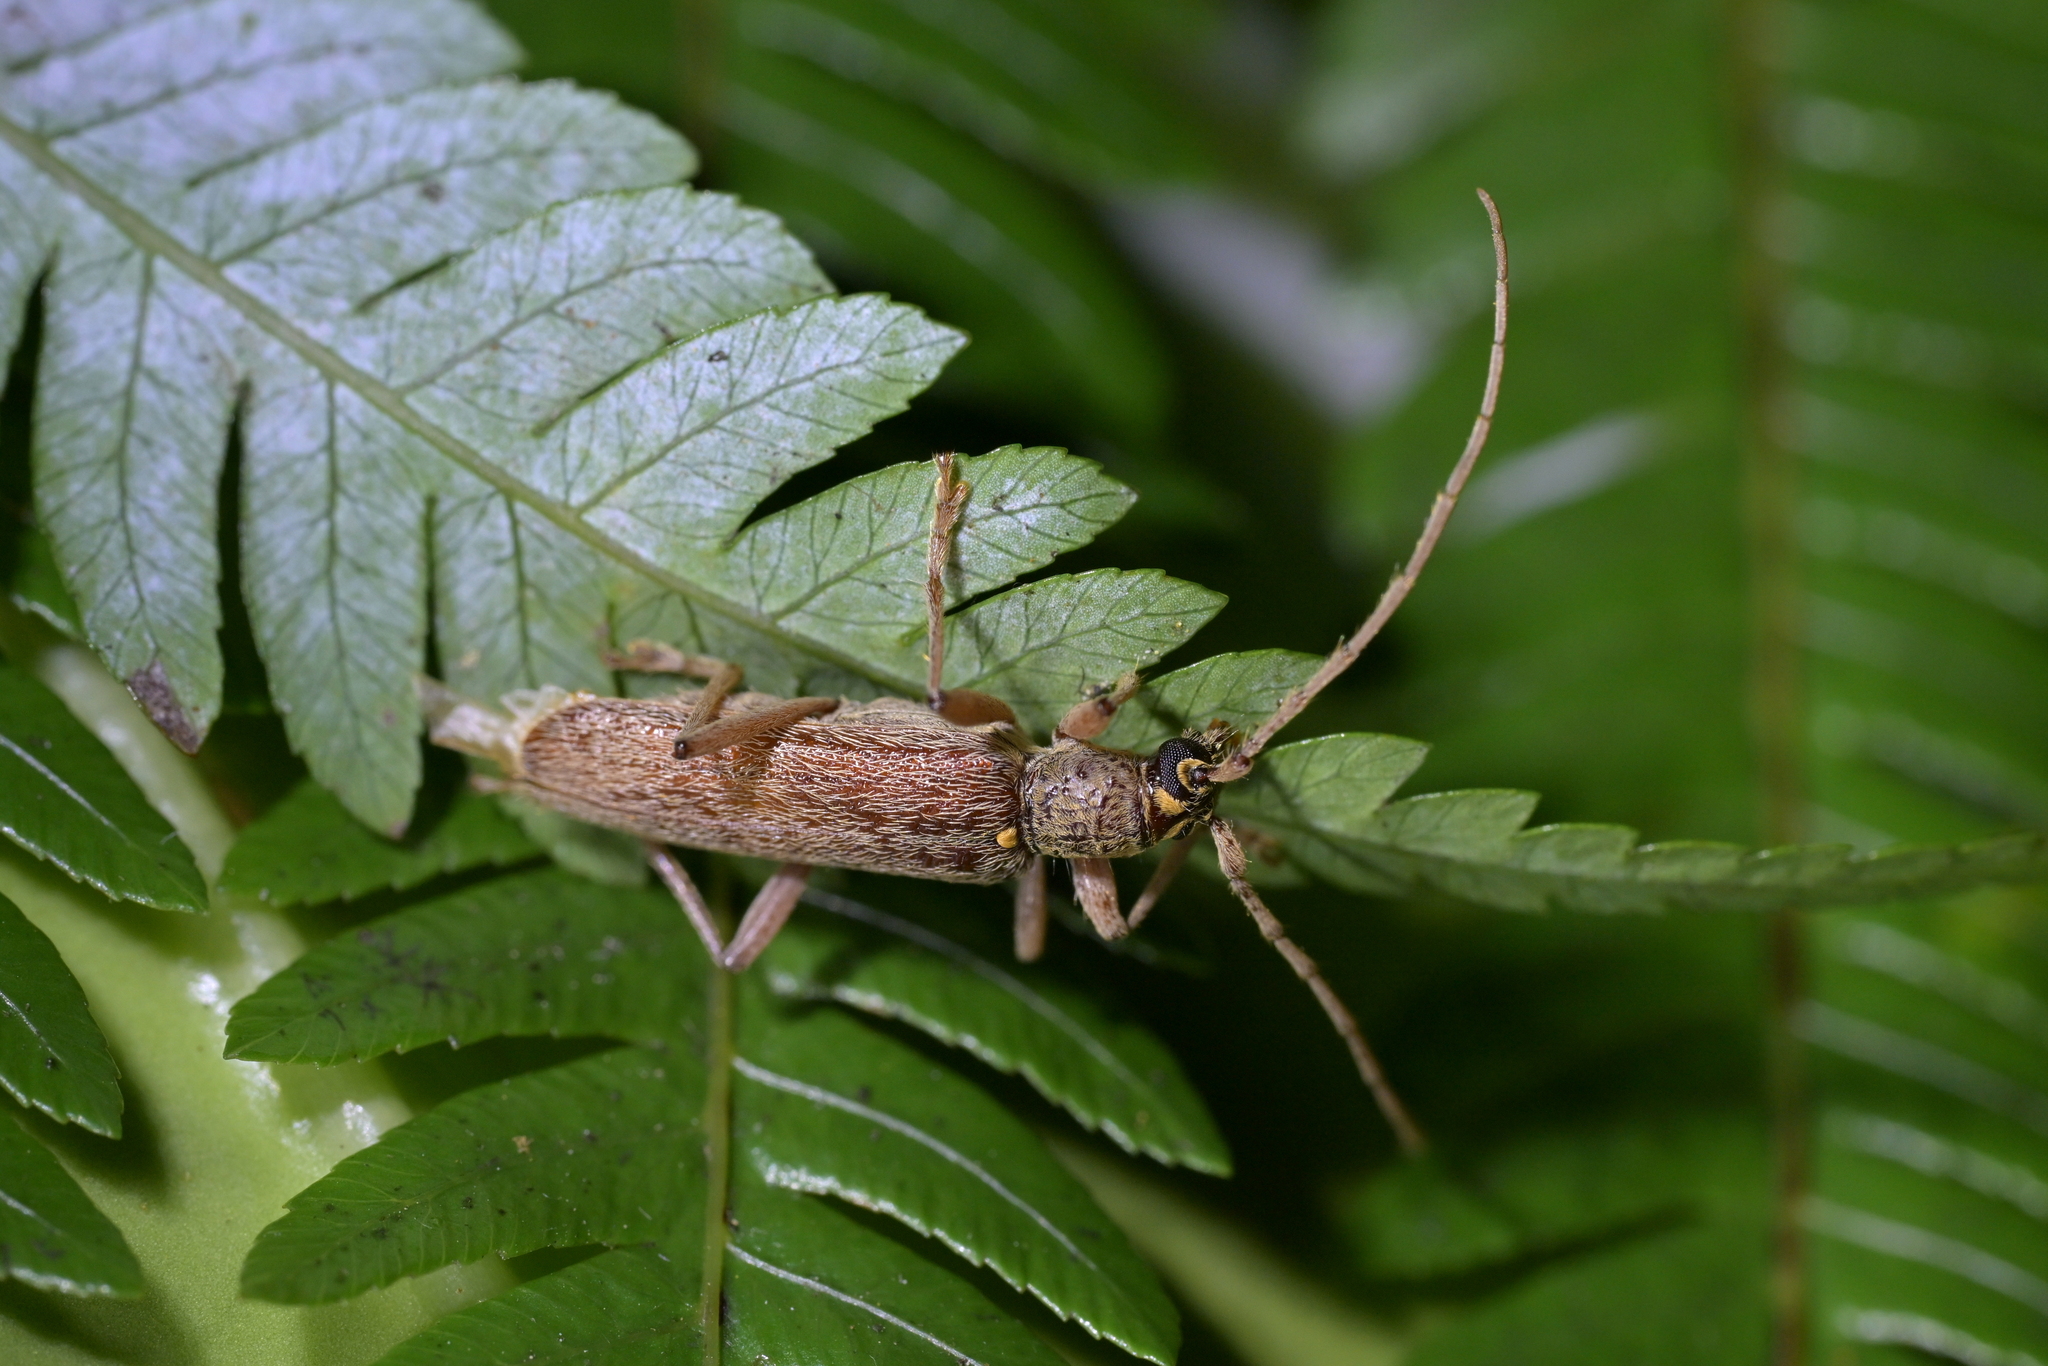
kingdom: Animalia
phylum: Arthropoda
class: Insecta
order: Coleoptera
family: Cerambycidae
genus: Oemona
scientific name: Oemona hirta
